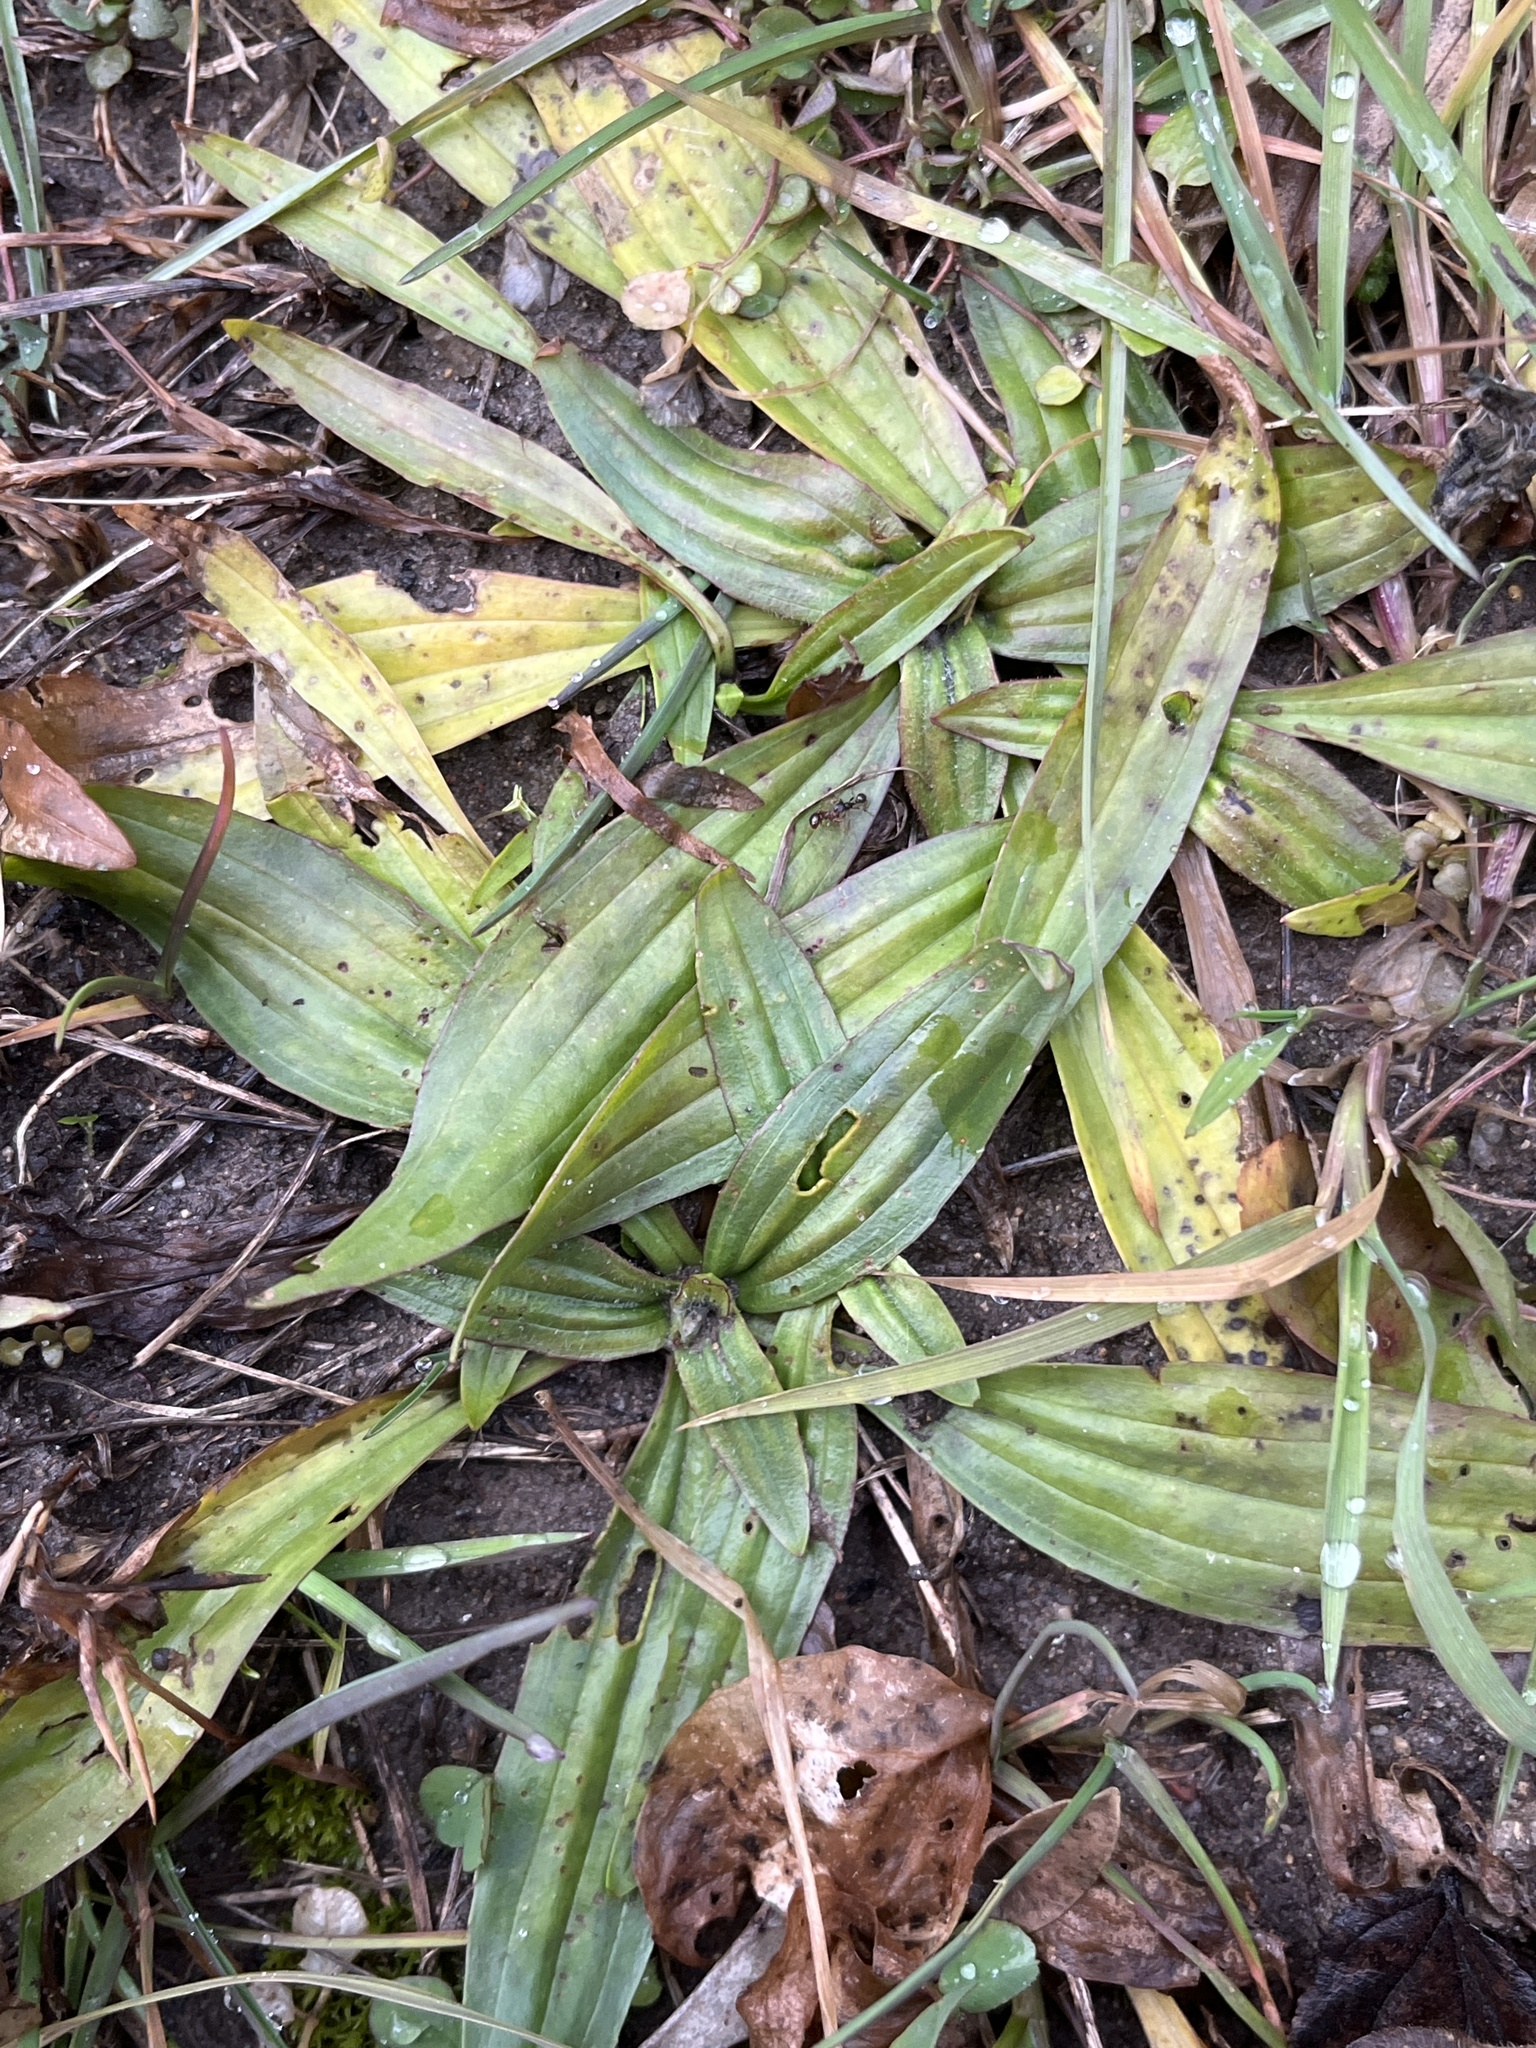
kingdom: Plantae
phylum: Tracheophyta
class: Magnoliopsida
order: Lamiales
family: Plantaginaceae
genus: Plantago
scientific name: Plantago lanceolata
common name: Ribwort plantain
